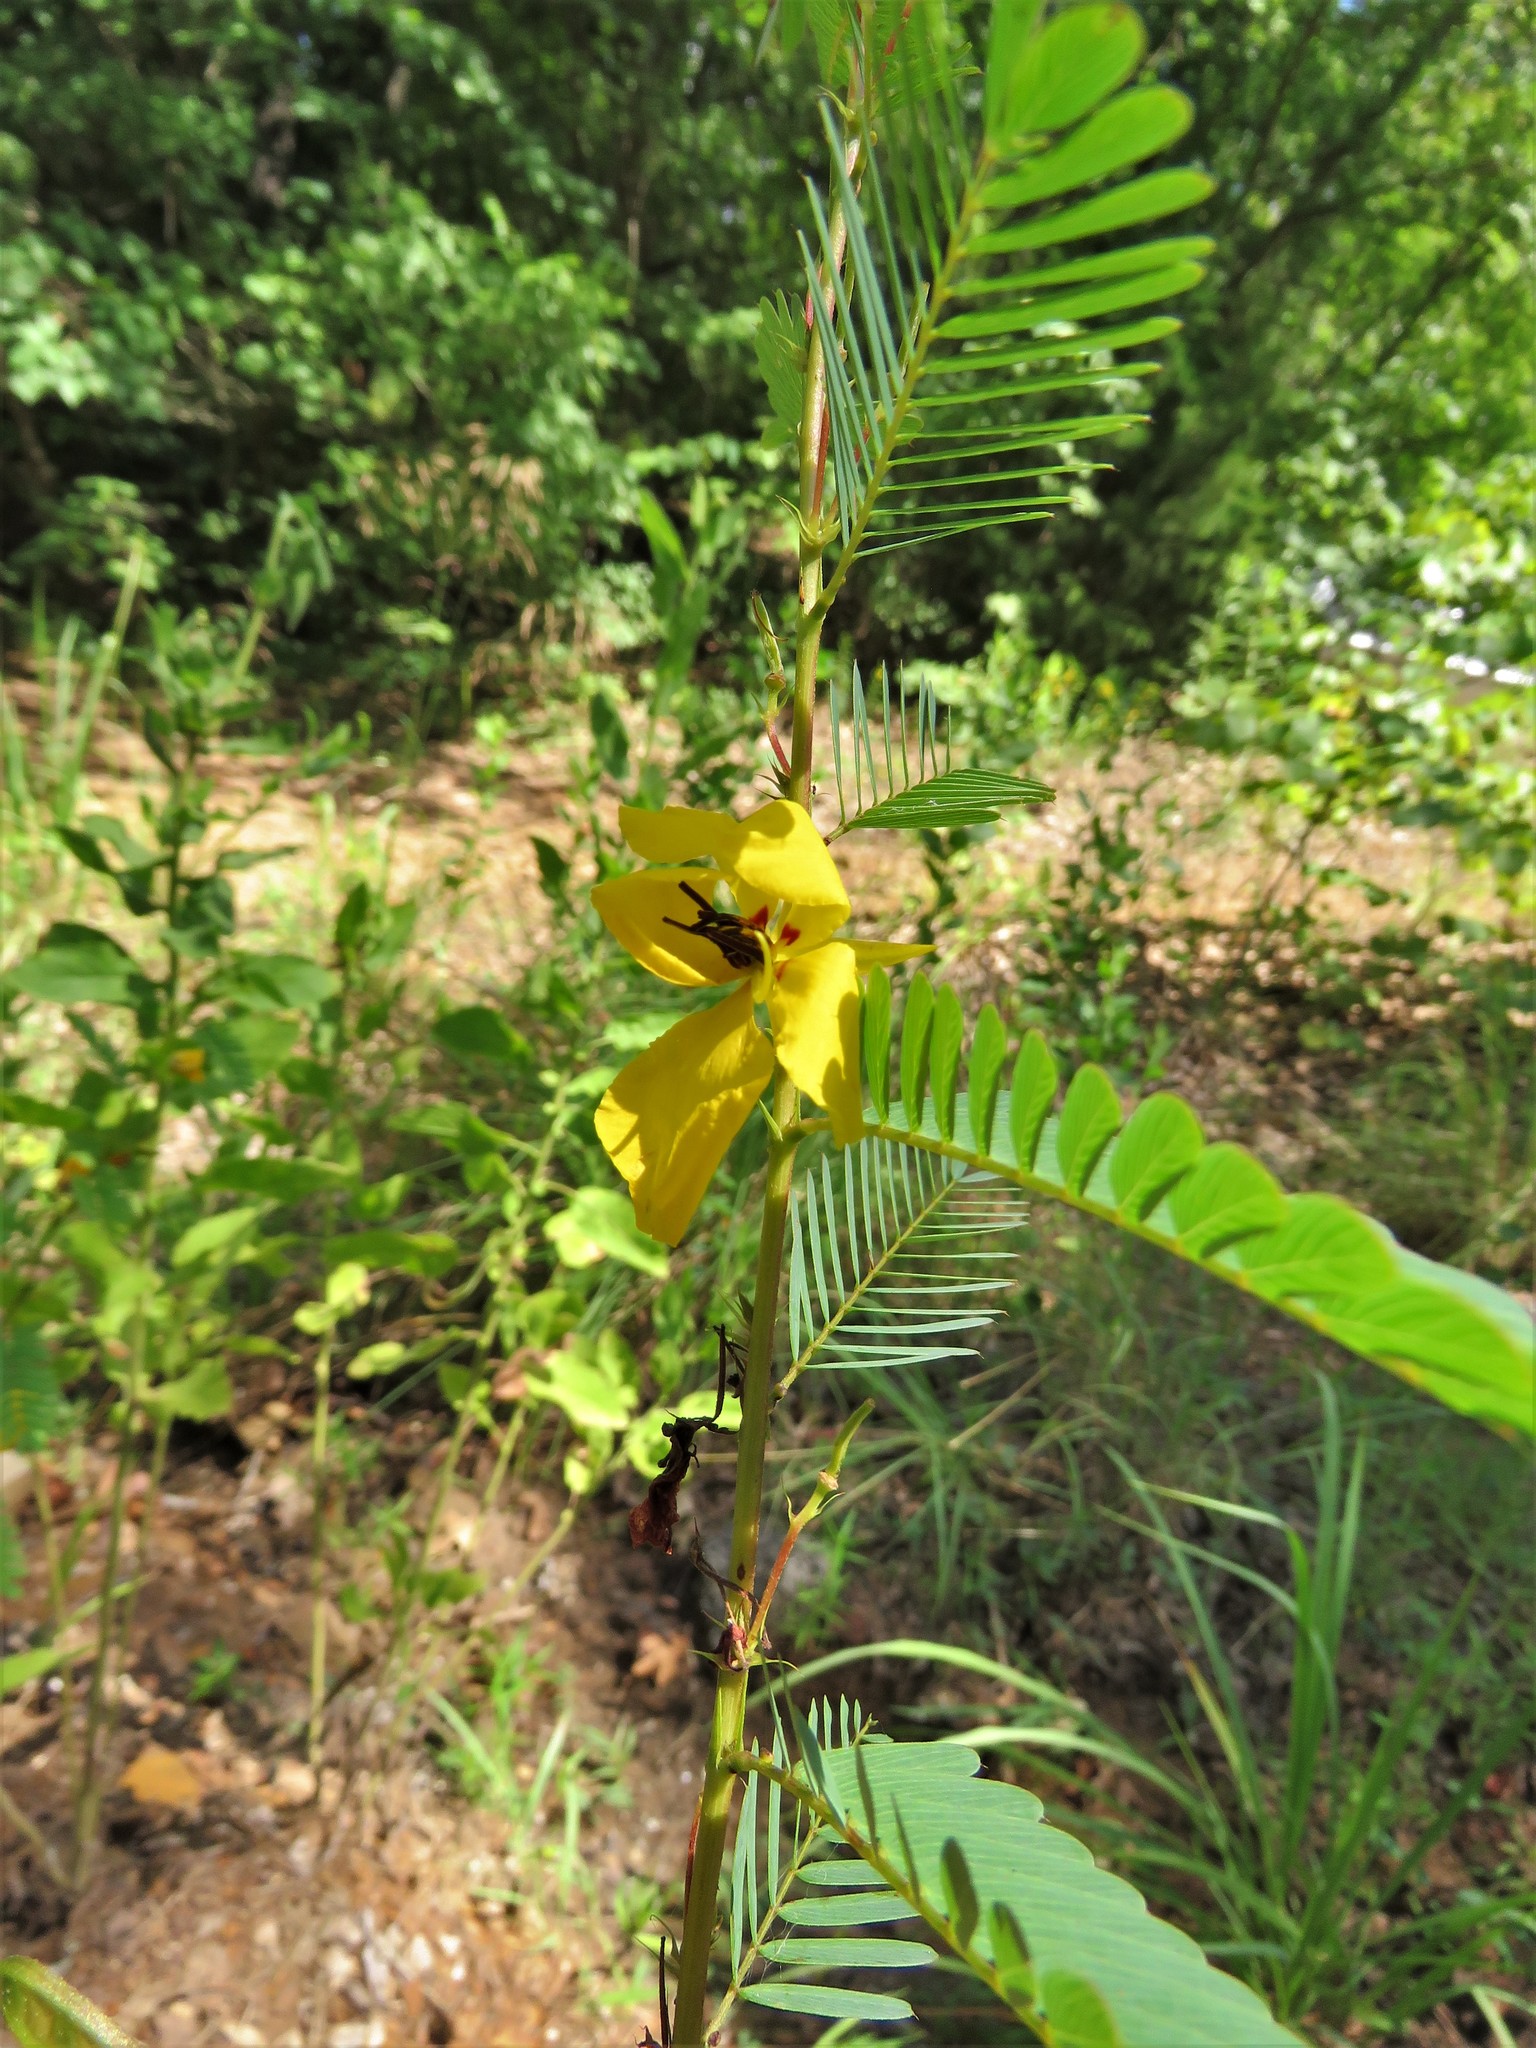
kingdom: Plantae
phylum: Tracheophyta
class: Magnoliopsida
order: Fabales
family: Fabaceae
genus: Chamaecrista
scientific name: Chamaecrista fasciculata
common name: Golden cassia
